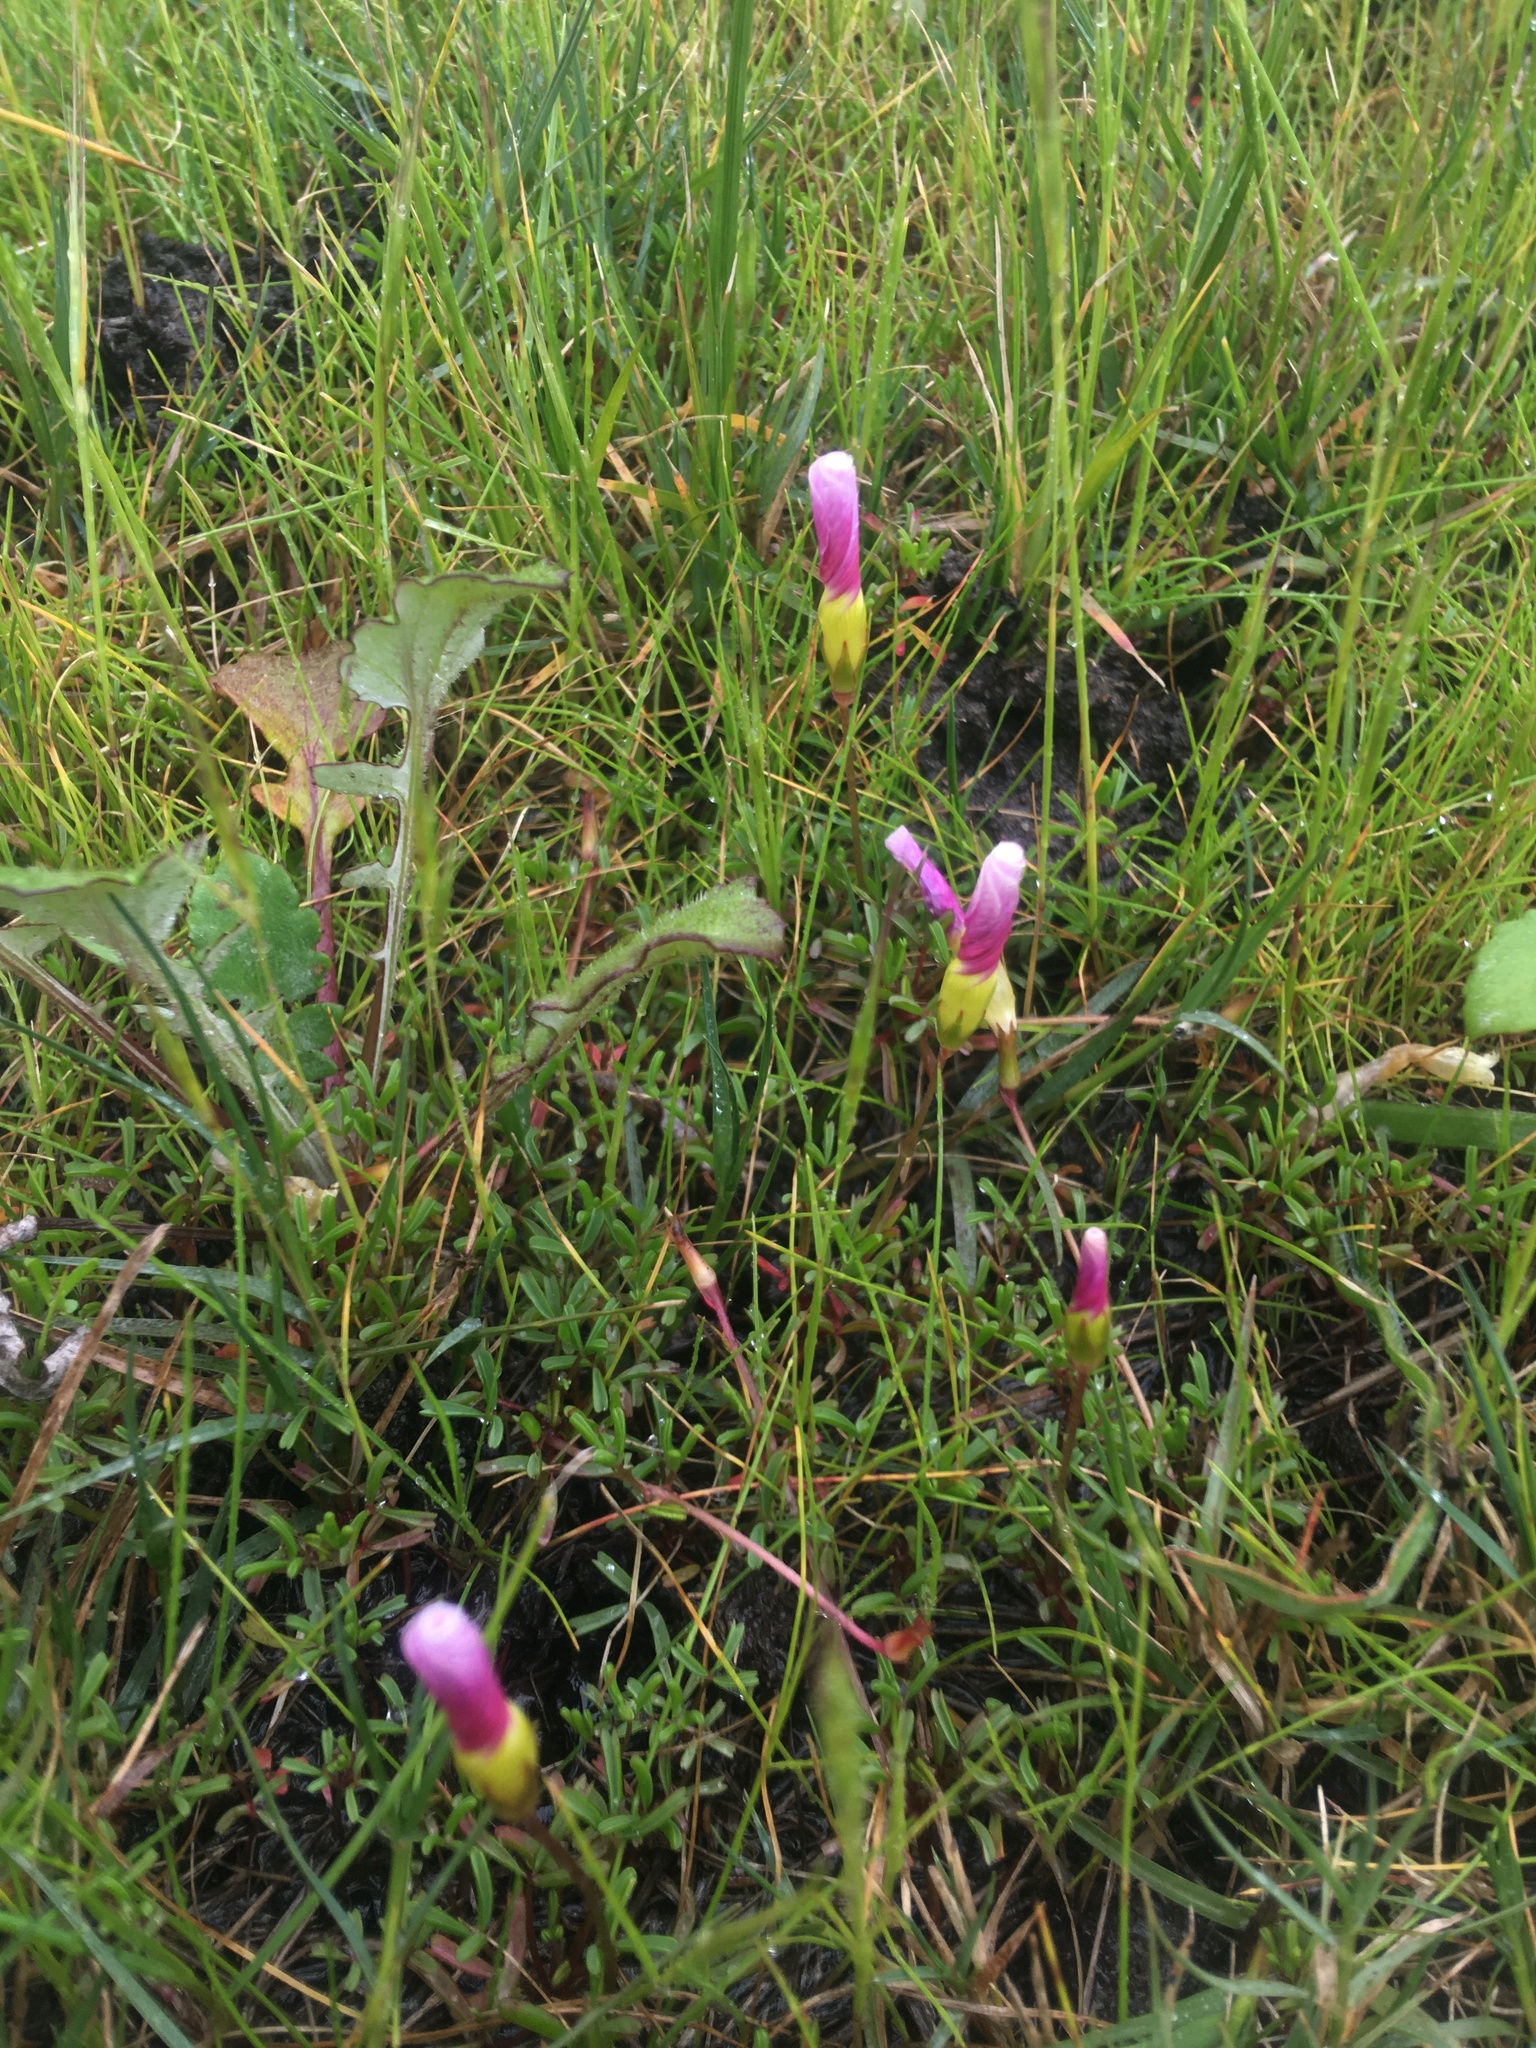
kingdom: Plantae
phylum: Tracheophyta
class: Magnoliopsida
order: Oxalidales
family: Oxalidaceae
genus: Oxalis
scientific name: Oxalis glabra
